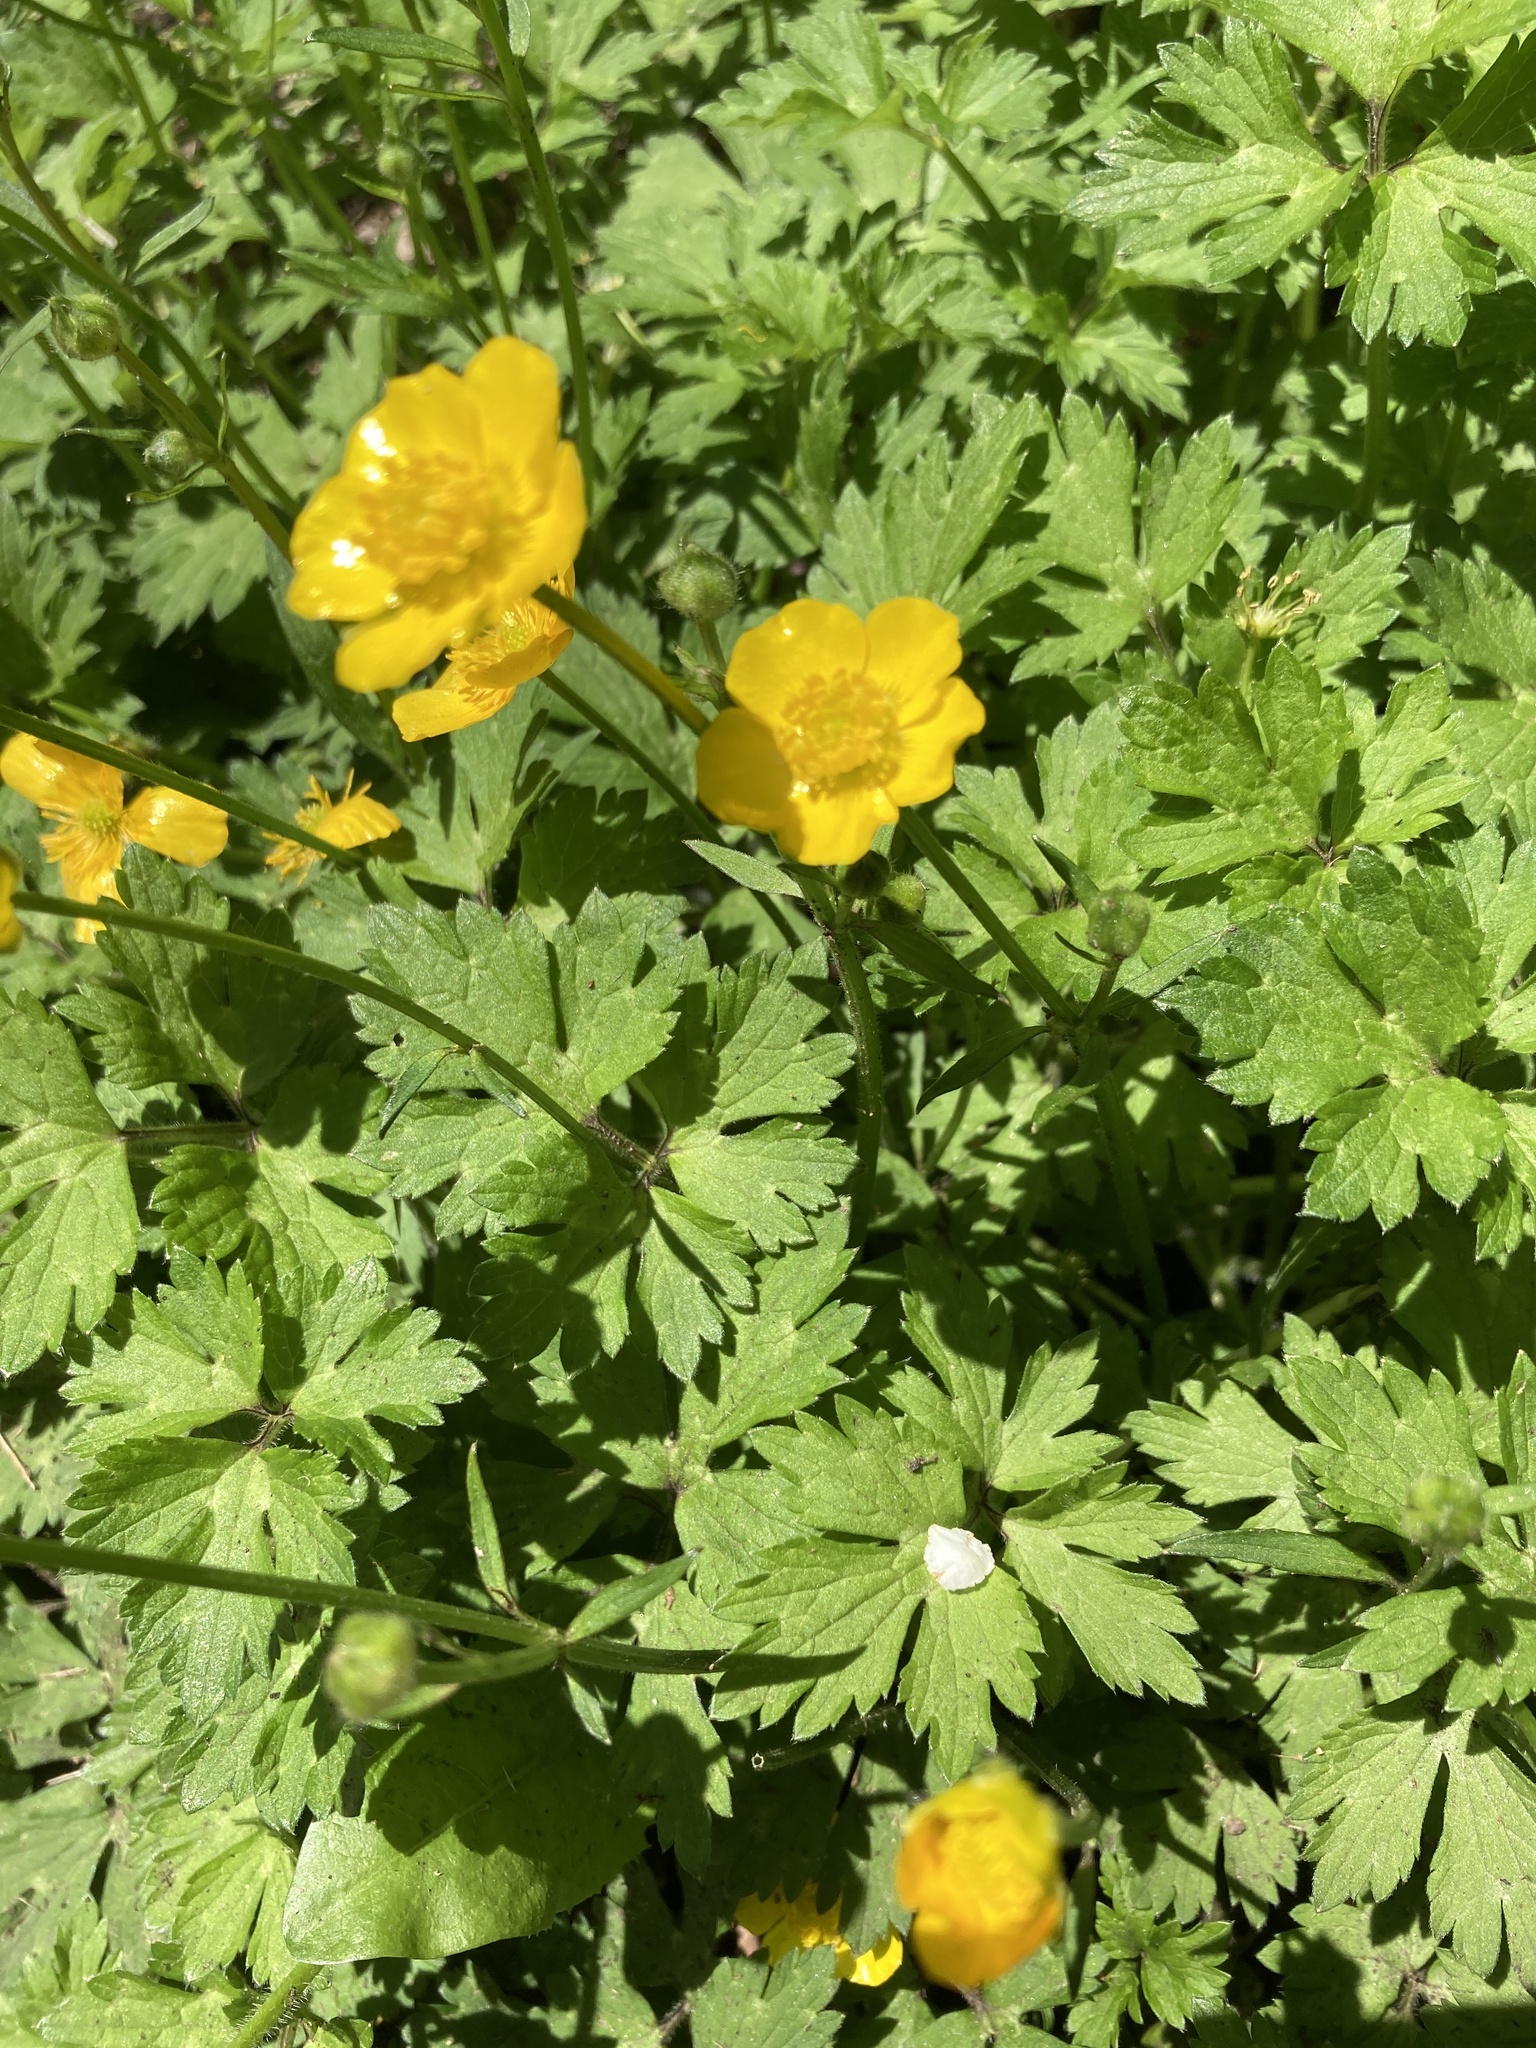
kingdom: Plantae
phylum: Tracheophyta
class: Magnoliopsida
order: Ranunculales
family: Ranunculaceae
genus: Ranunculus
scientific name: Ranunculus repens
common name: Creeping buttercup
